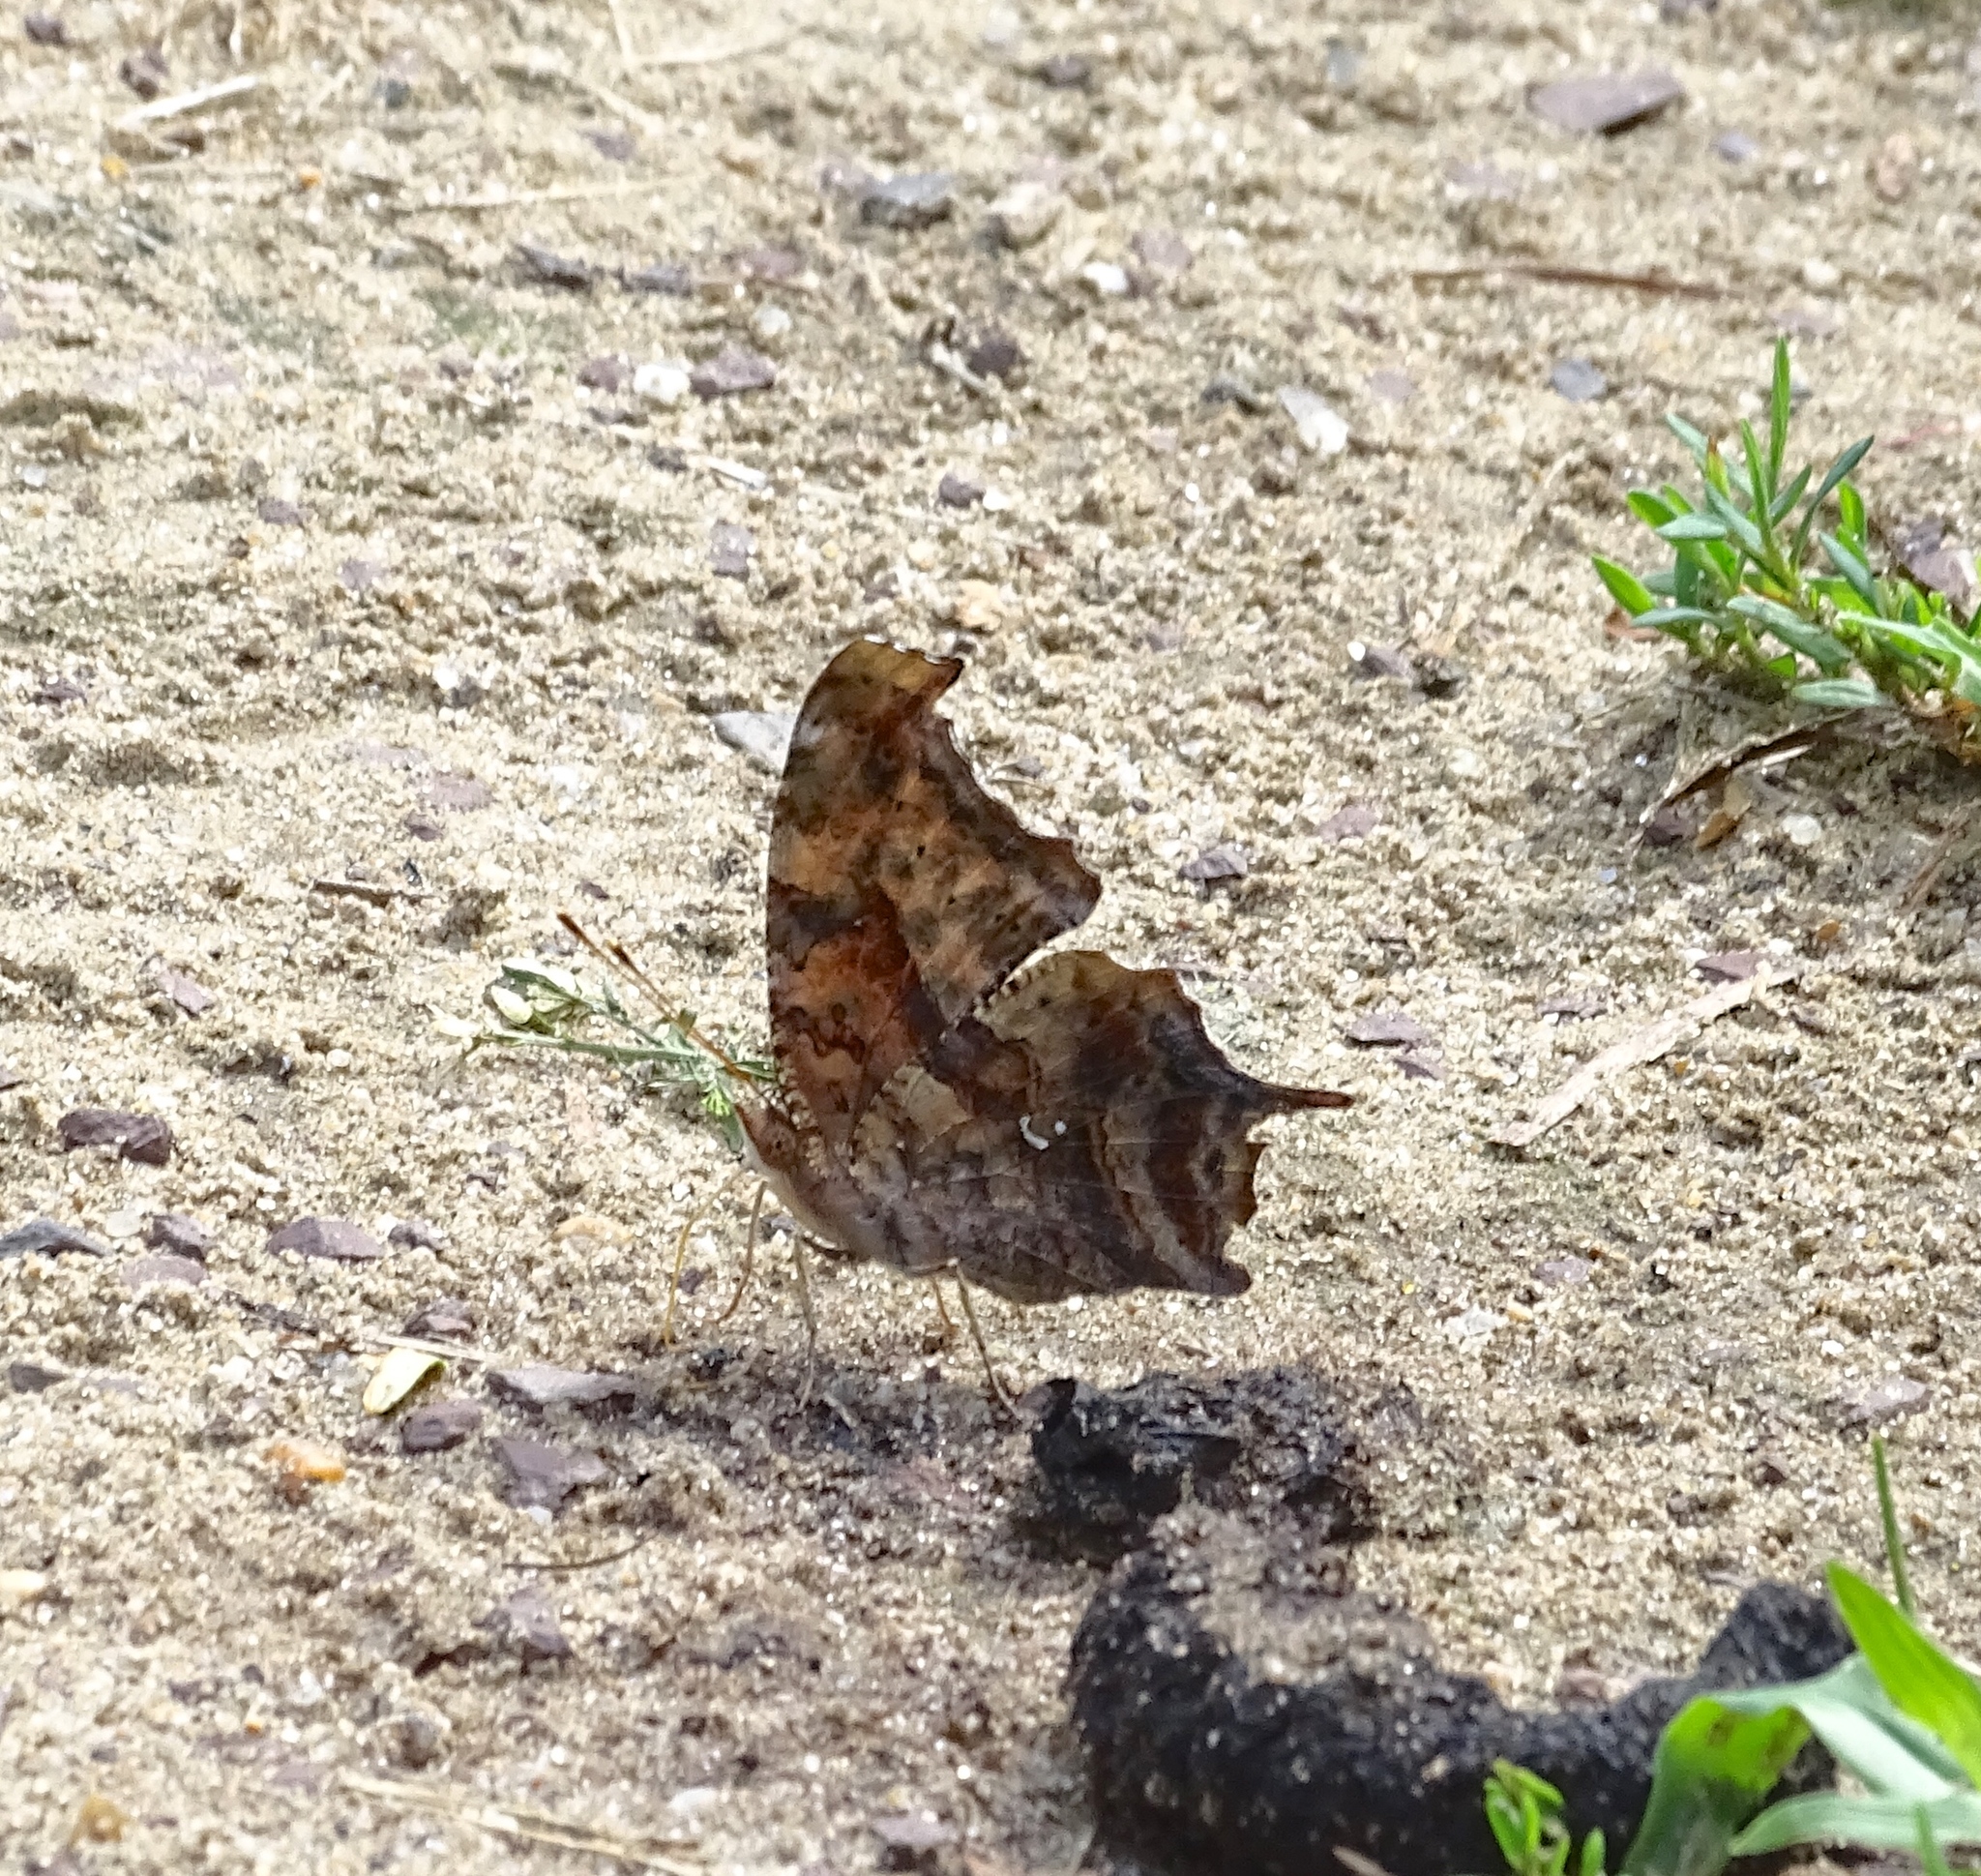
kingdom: Animalia
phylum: Arthropoda
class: Insecta
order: Lepidoptera
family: Nymphalidae
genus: Polygonia
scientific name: Polygonia interrogationis
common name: Question mark
